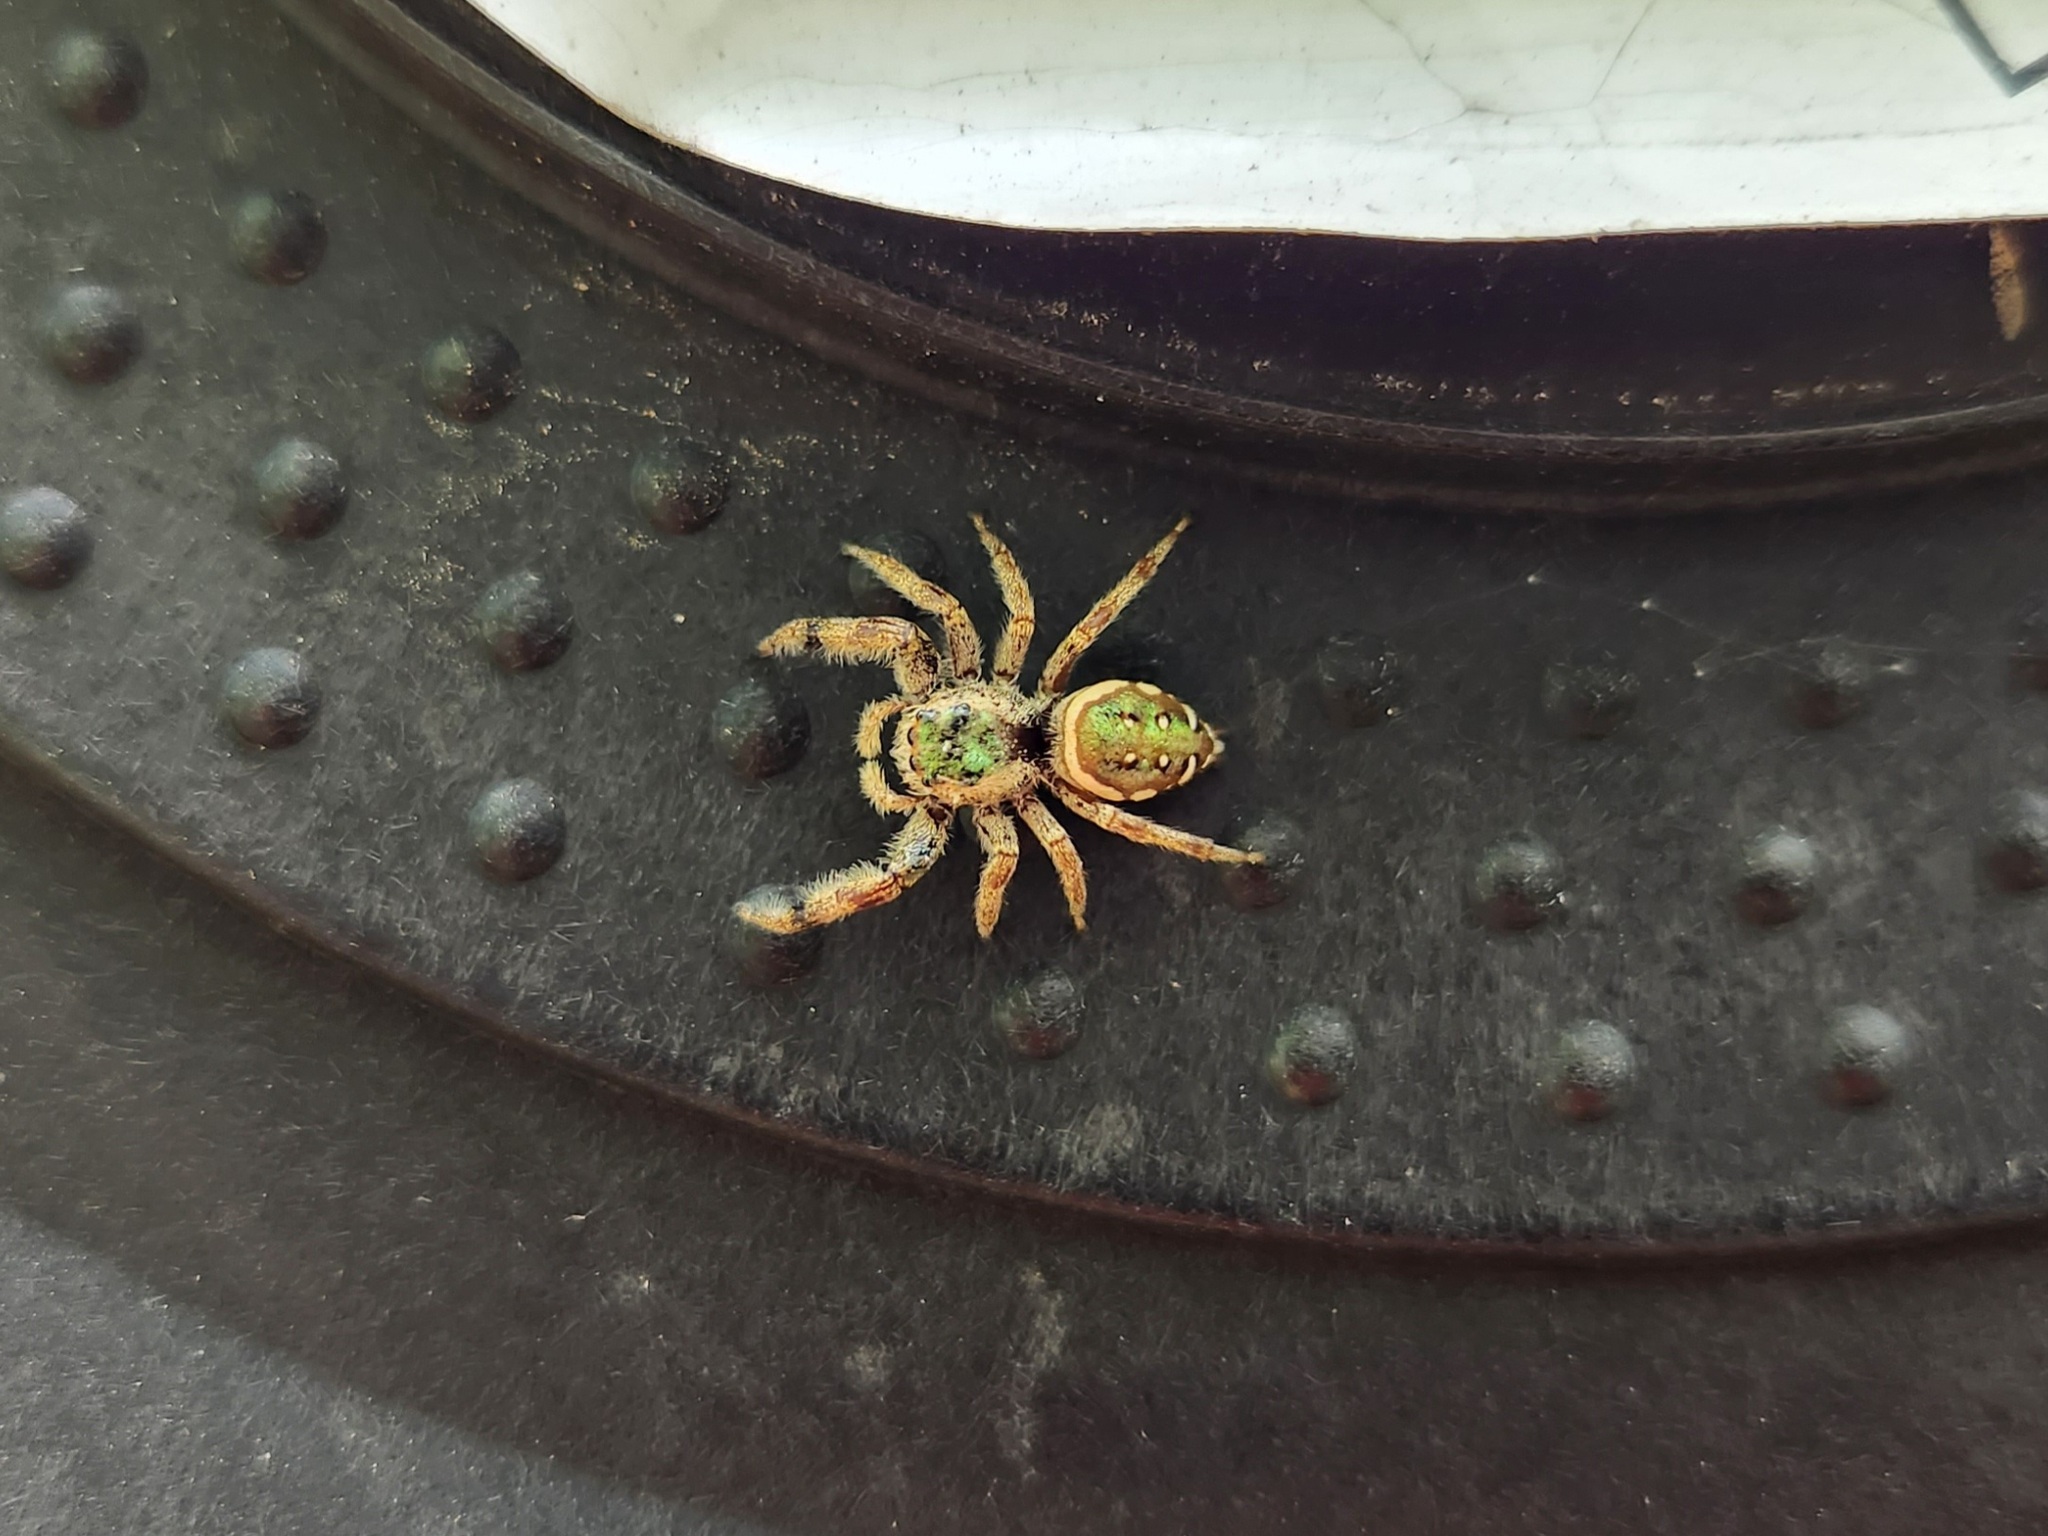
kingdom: Animalia
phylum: Arthropoda
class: Arachnida
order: Araneae
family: Salticidae
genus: Paraphidippus
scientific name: Paraphidippus aurantius
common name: Jumping spiders
